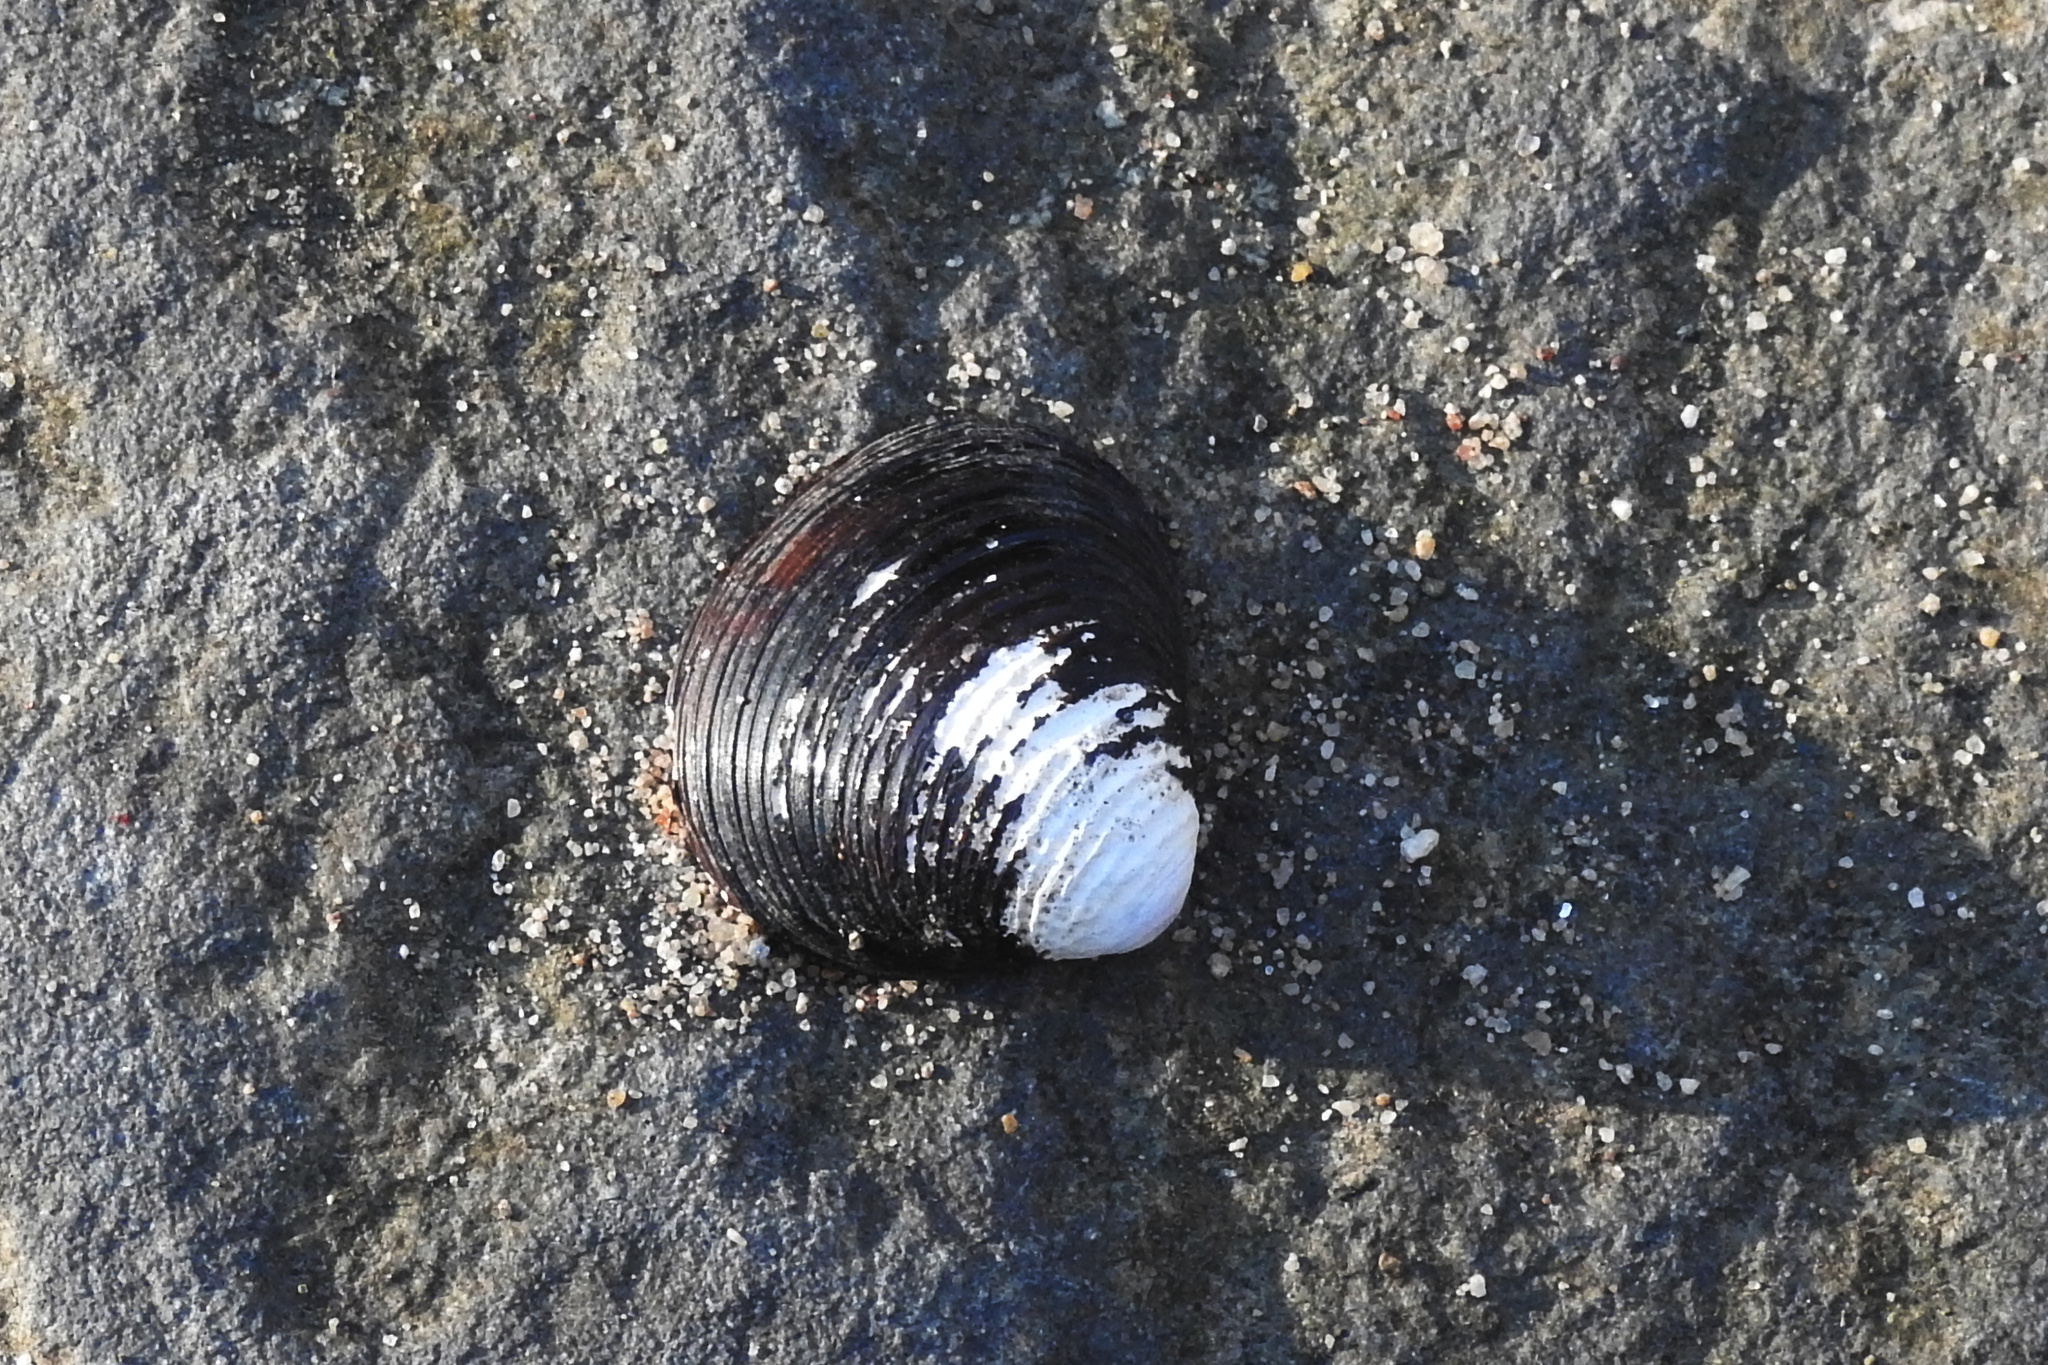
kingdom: Animalia
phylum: Mollusca
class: Bivalvia
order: Venerida
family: Cyrenidae
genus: Corbicula
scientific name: Corbicula fluminea
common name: Asian clam
